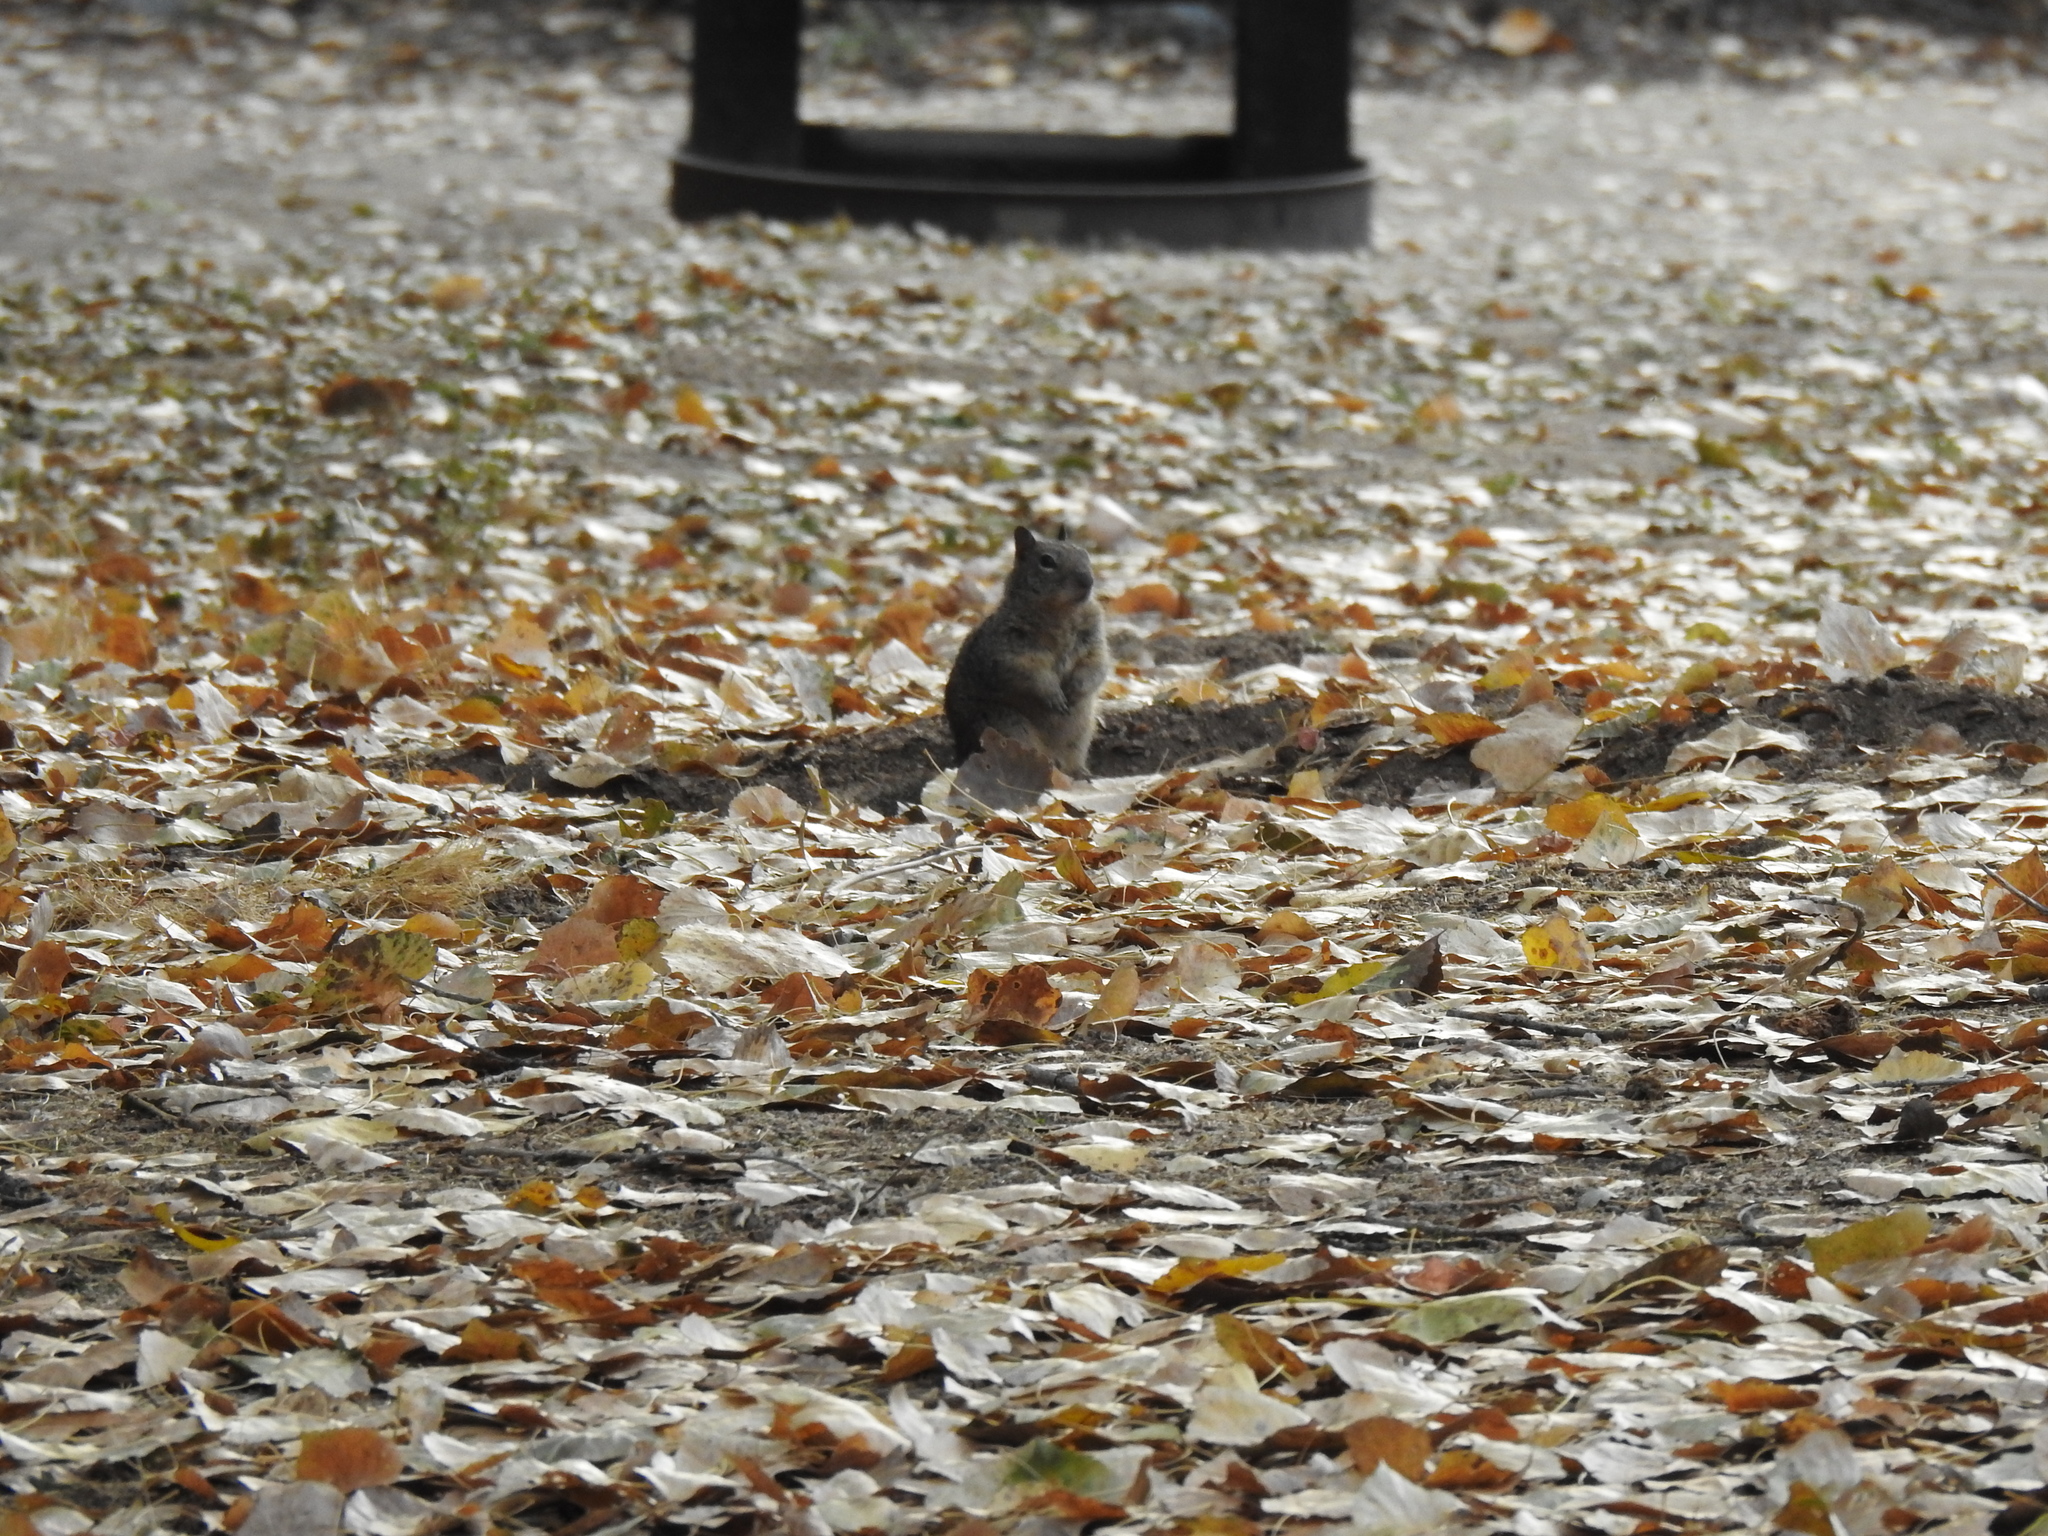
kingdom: Animalia
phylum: Chordata
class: Mammalia
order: Rodentia
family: Sciuridae
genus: Otospermophilus
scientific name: Otospermophilus beecheyi
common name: California ground squirrel
